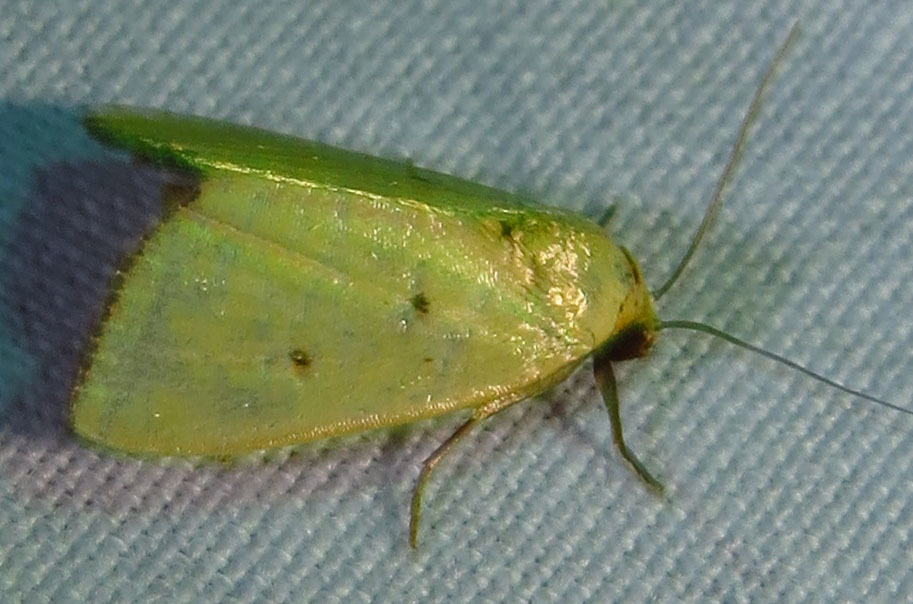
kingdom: Animalia
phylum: Arthropoda
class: Insecta
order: Lepidoptera
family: Noctuidae
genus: Marimatha
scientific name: Marimatha nigrofimbria
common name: Black-bordered lemon moth
